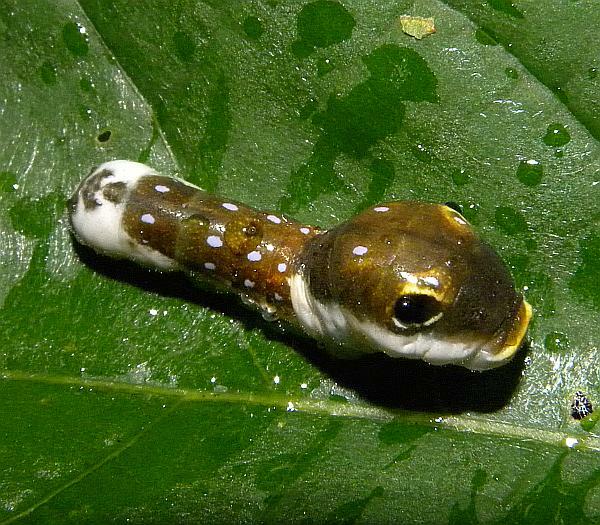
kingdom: Animalia
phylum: Arthropoda
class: Insecta
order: Lepidoptera
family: Papilionidae
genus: Papilio
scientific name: Papilio troilus
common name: Spicebush swallowtail
